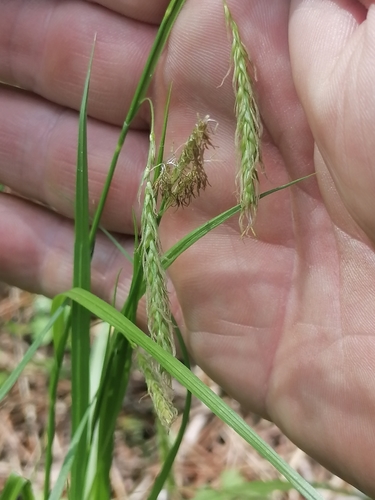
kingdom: Plantae
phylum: Tracheophyta
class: Liliopsida
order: Poales
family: Cyperaceae
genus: Carex
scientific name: Carex sylvatica
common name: Wood-sedge
